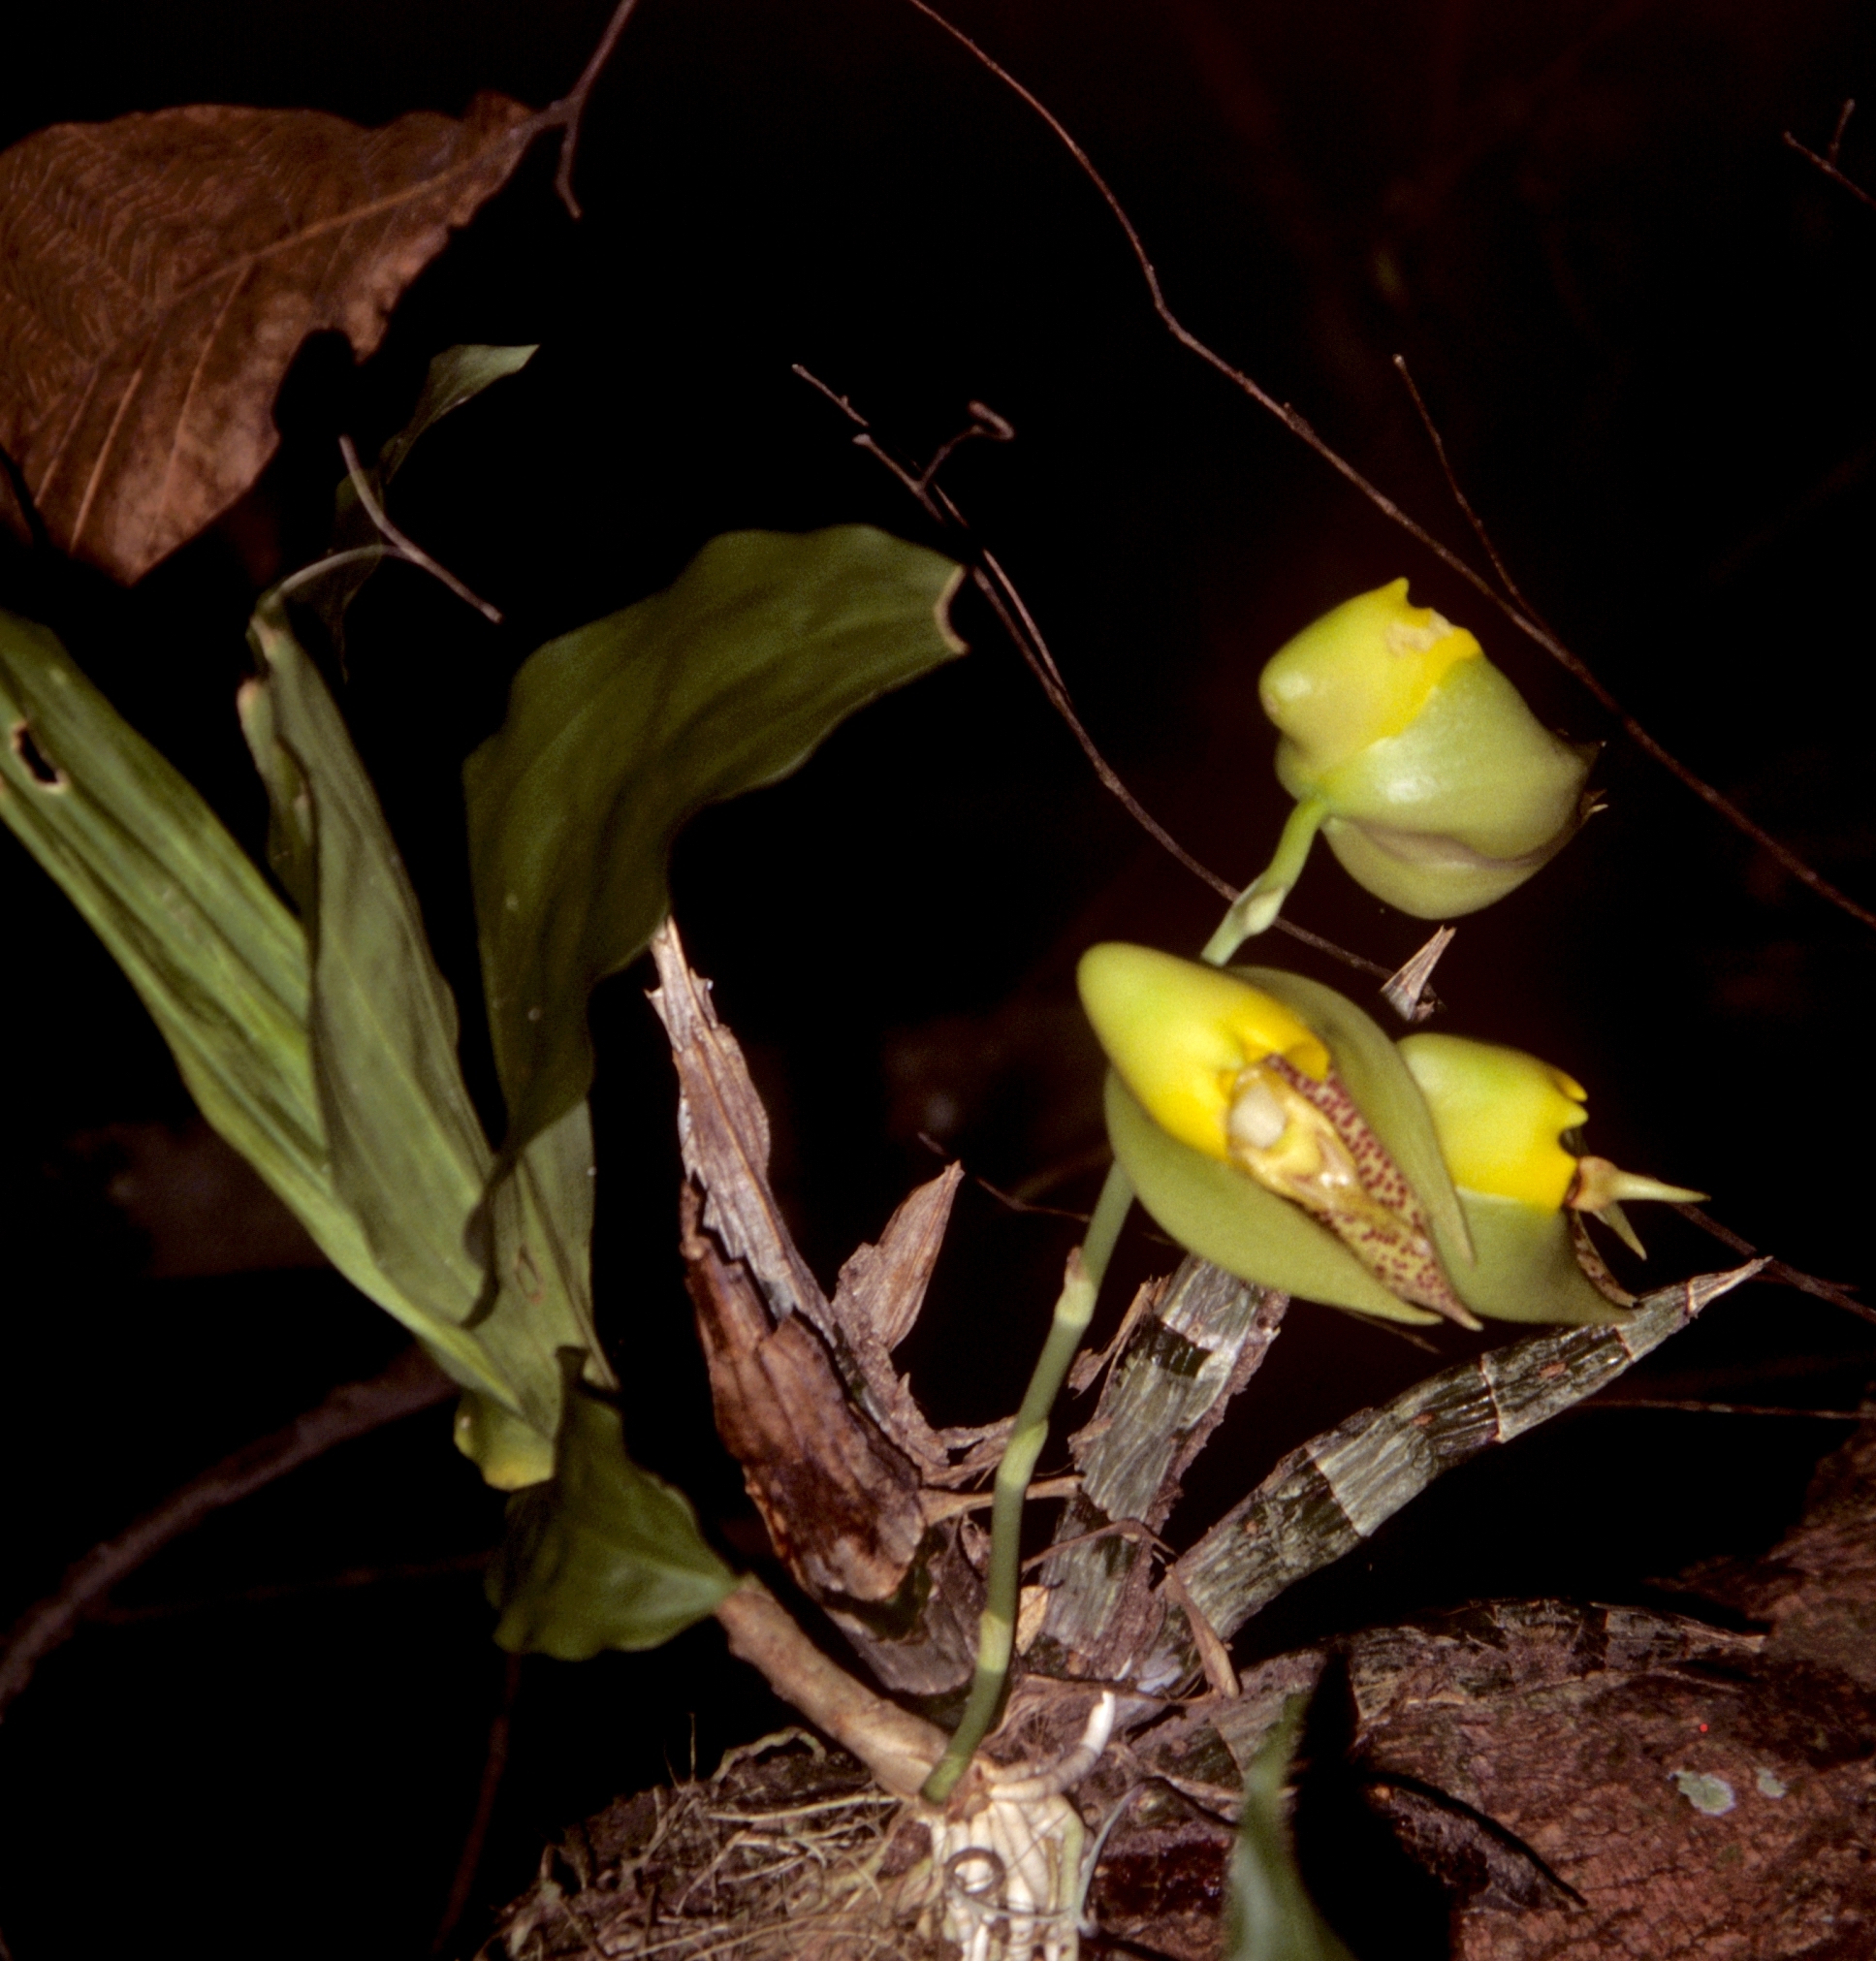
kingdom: Plantae
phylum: Tracheophyta
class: Liliopsida
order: Asparagales
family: Orchidaceae
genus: Catasetum
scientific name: Catasetum macrocarpum
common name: Jumping orchid
